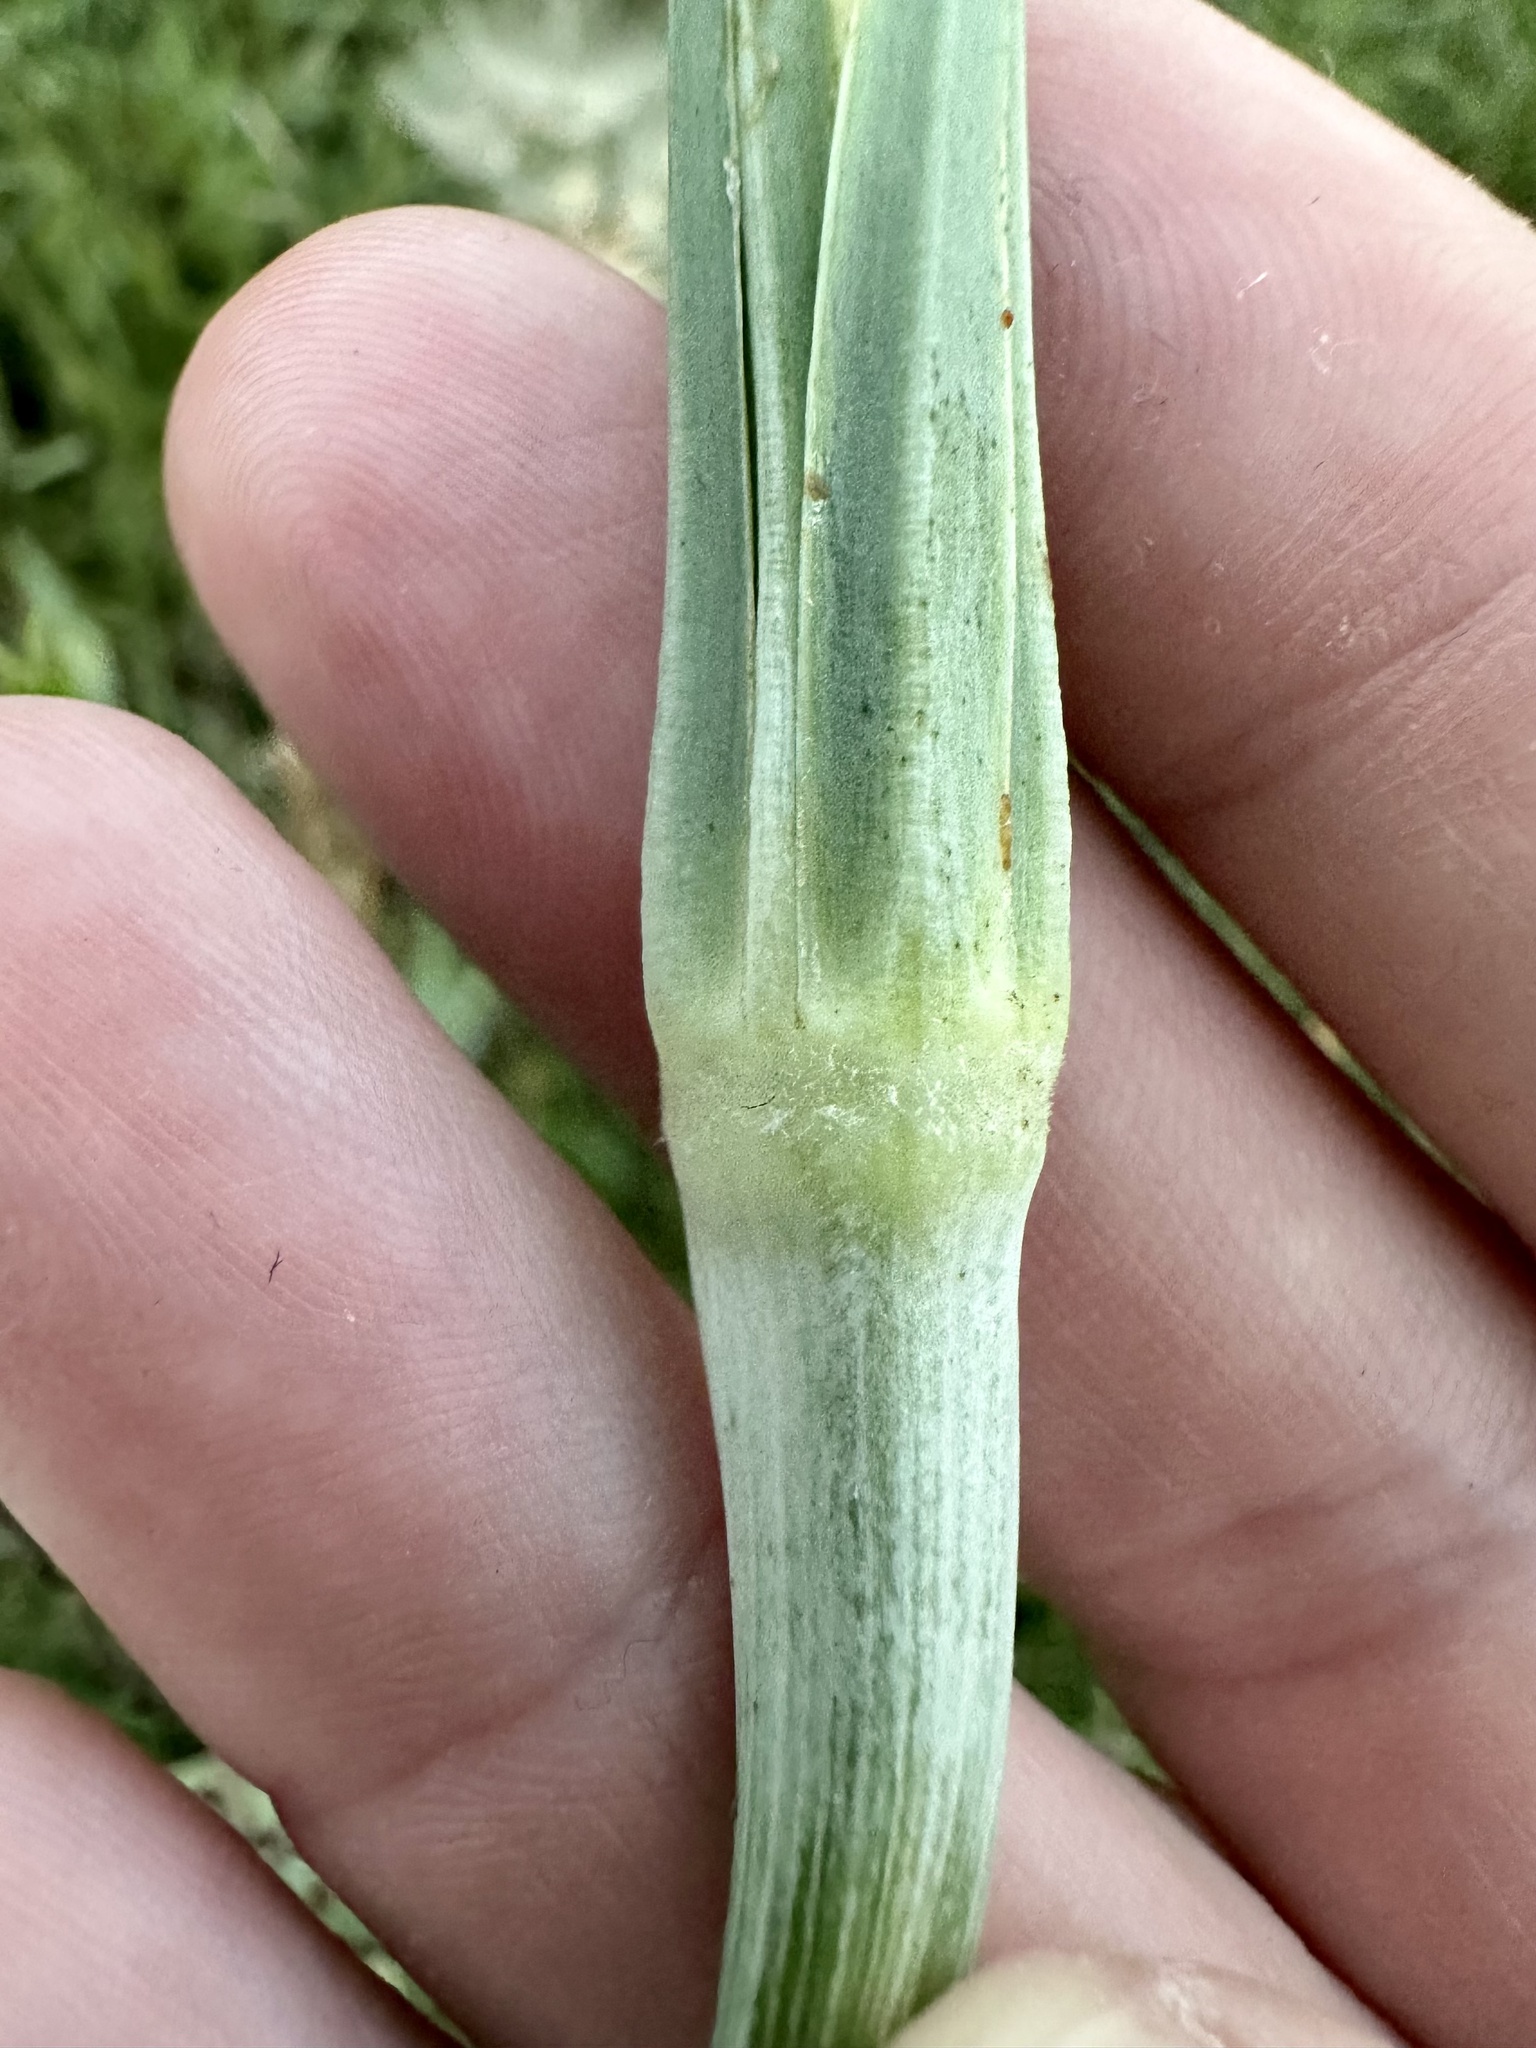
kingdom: Plantae
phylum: Tracheophyta
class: Magnoliopsida
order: Asterales
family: Asteraceae
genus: Tragopogon
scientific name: Tragopogon dubius
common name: Yellow salsify
